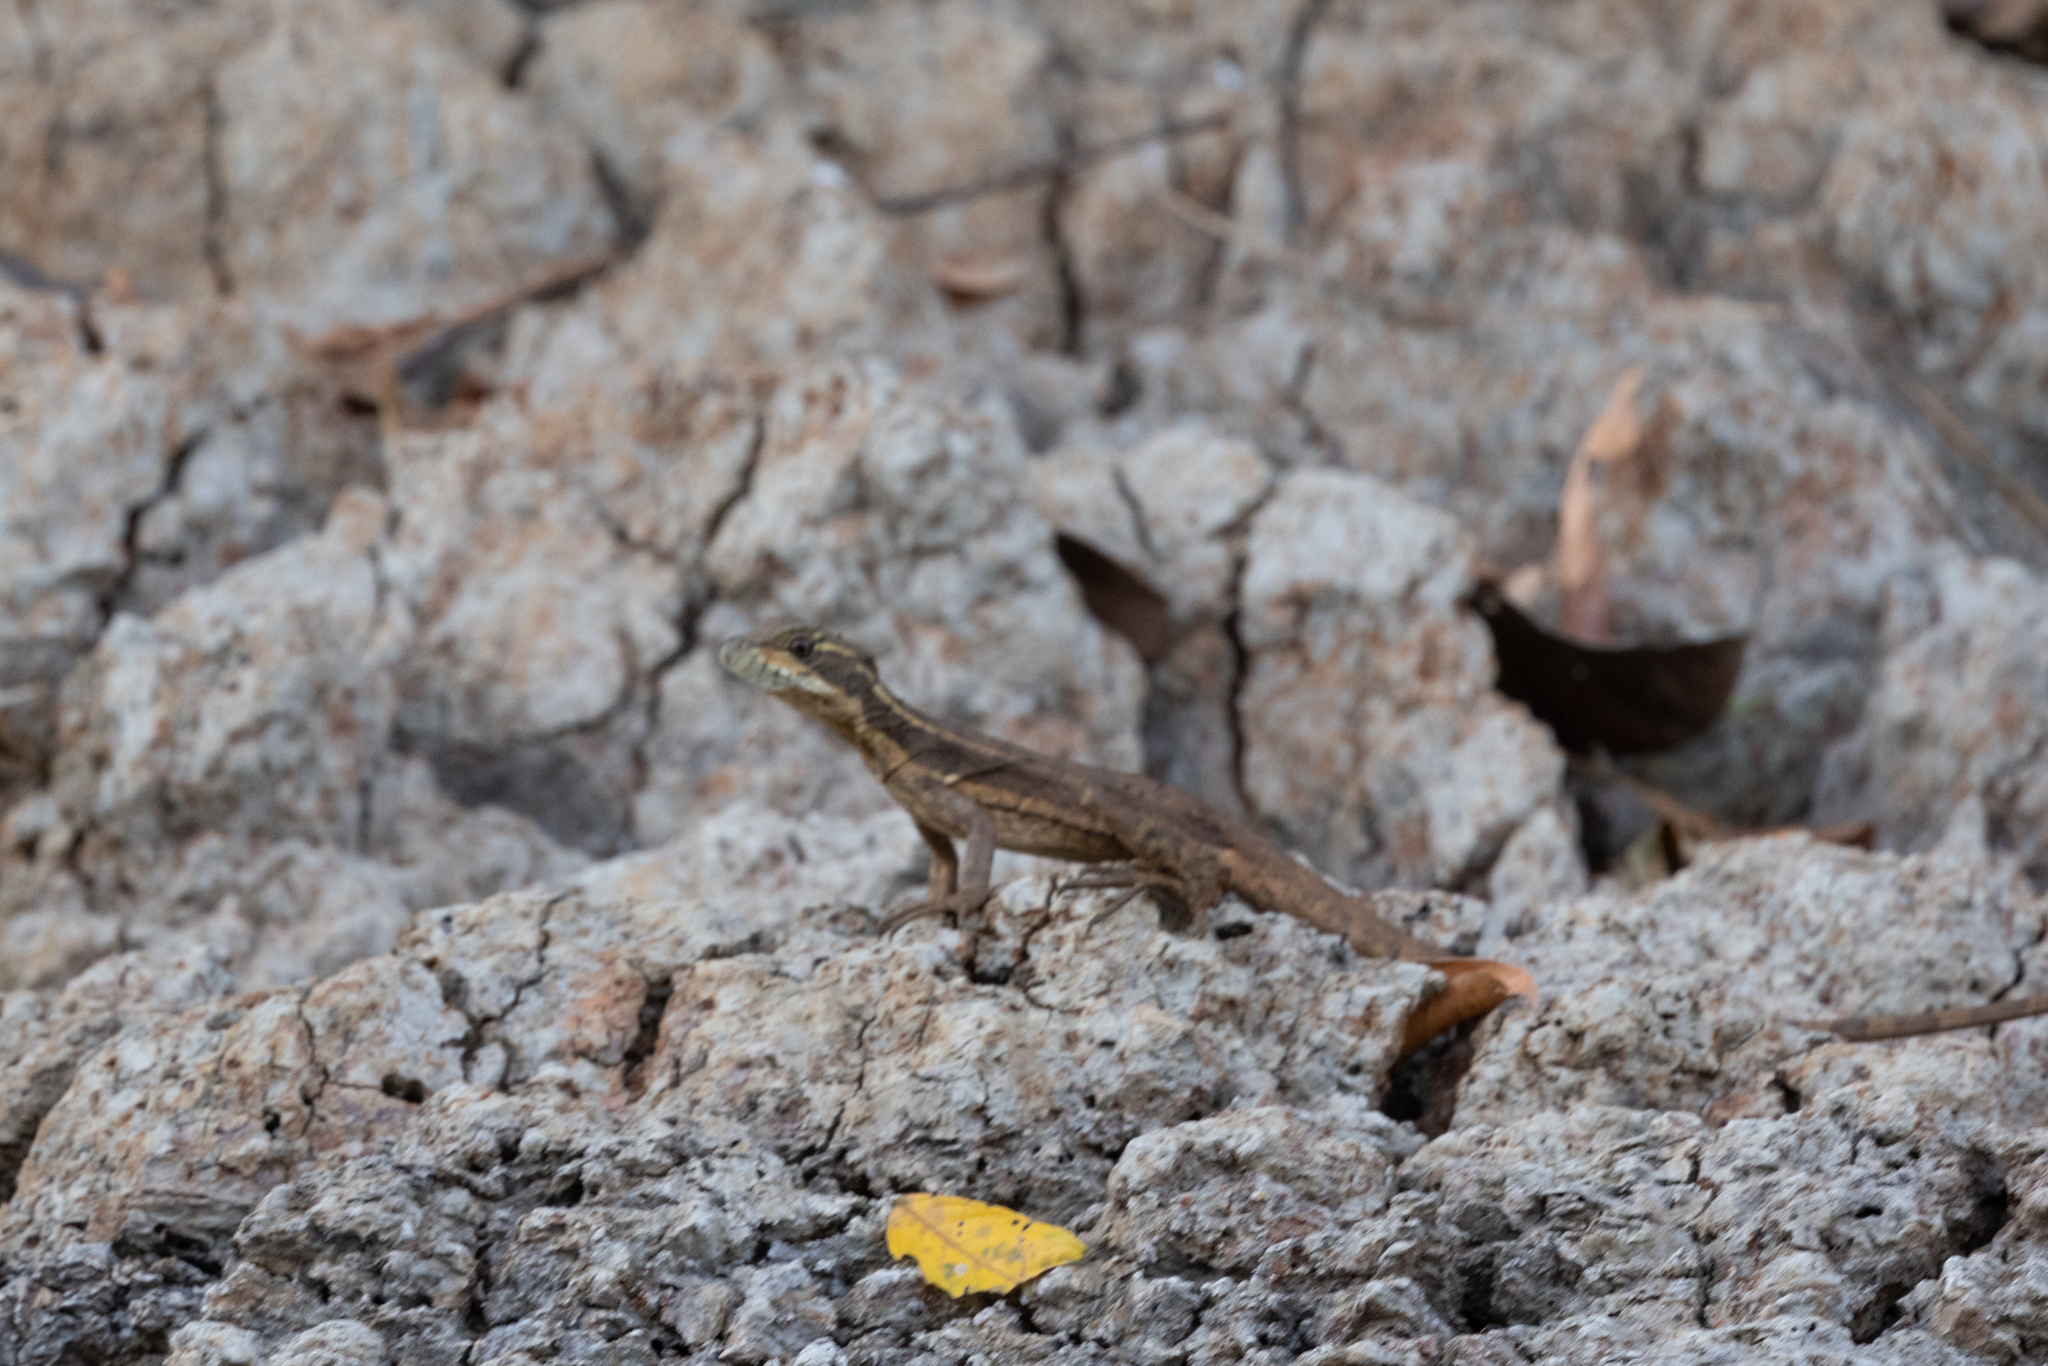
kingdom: Animalia
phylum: Chordata
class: Squamata
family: Corytophanidae
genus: Basiliscus
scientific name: Basiliscus basiliscus
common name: Common basilisk
